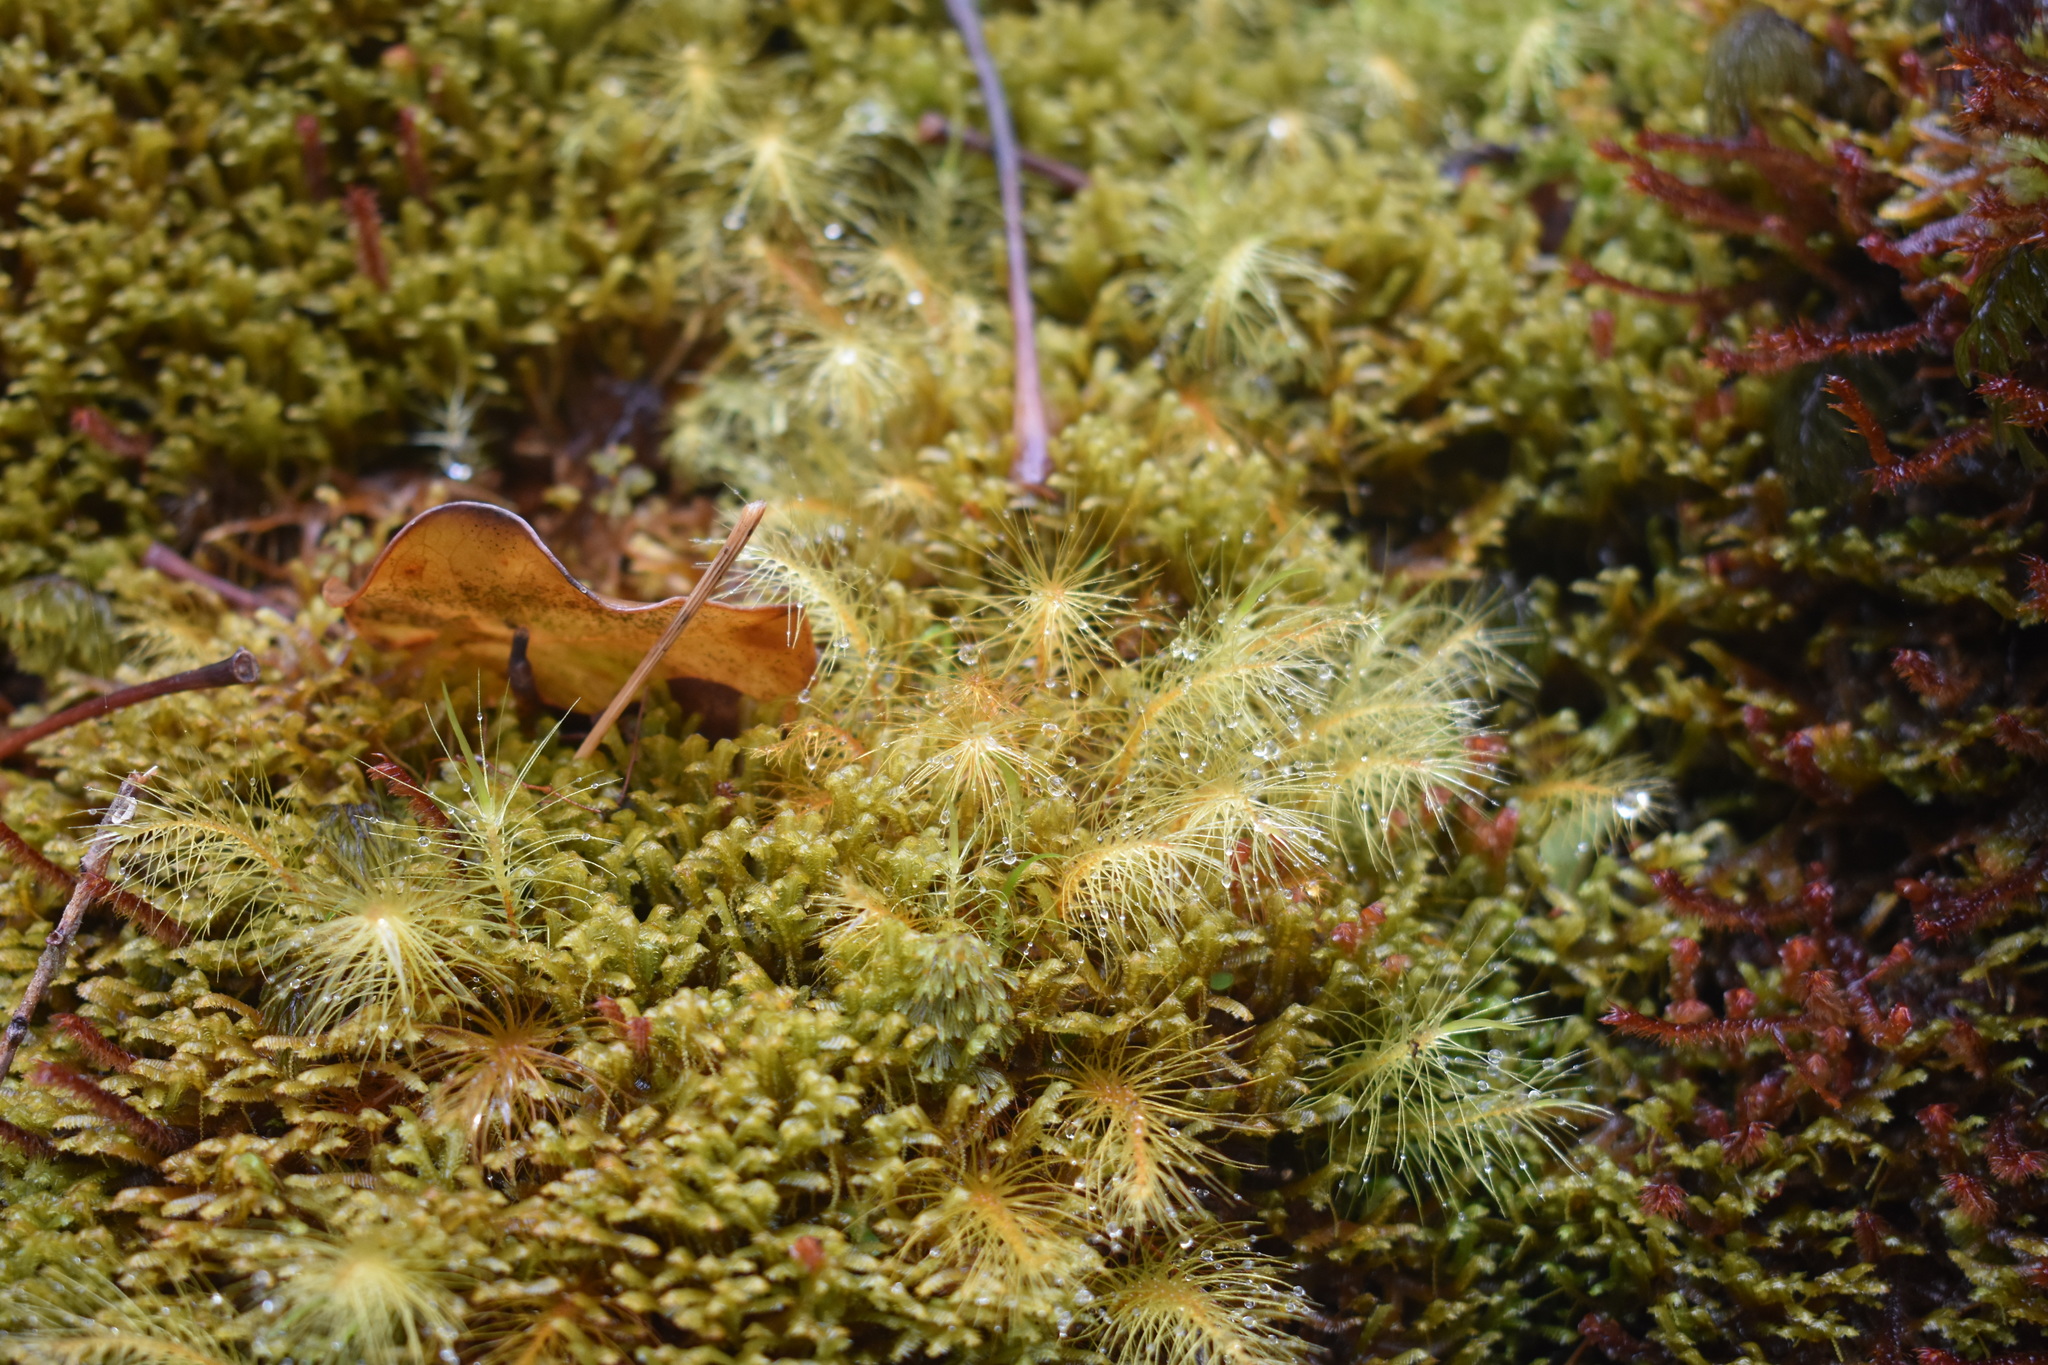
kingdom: Plantae
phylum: Bryophyta
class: Bryopsida
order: Rhizogoniales
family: Calomniaceae
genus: Pyrrhobryum
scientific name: Pyrrhobryum pungens
